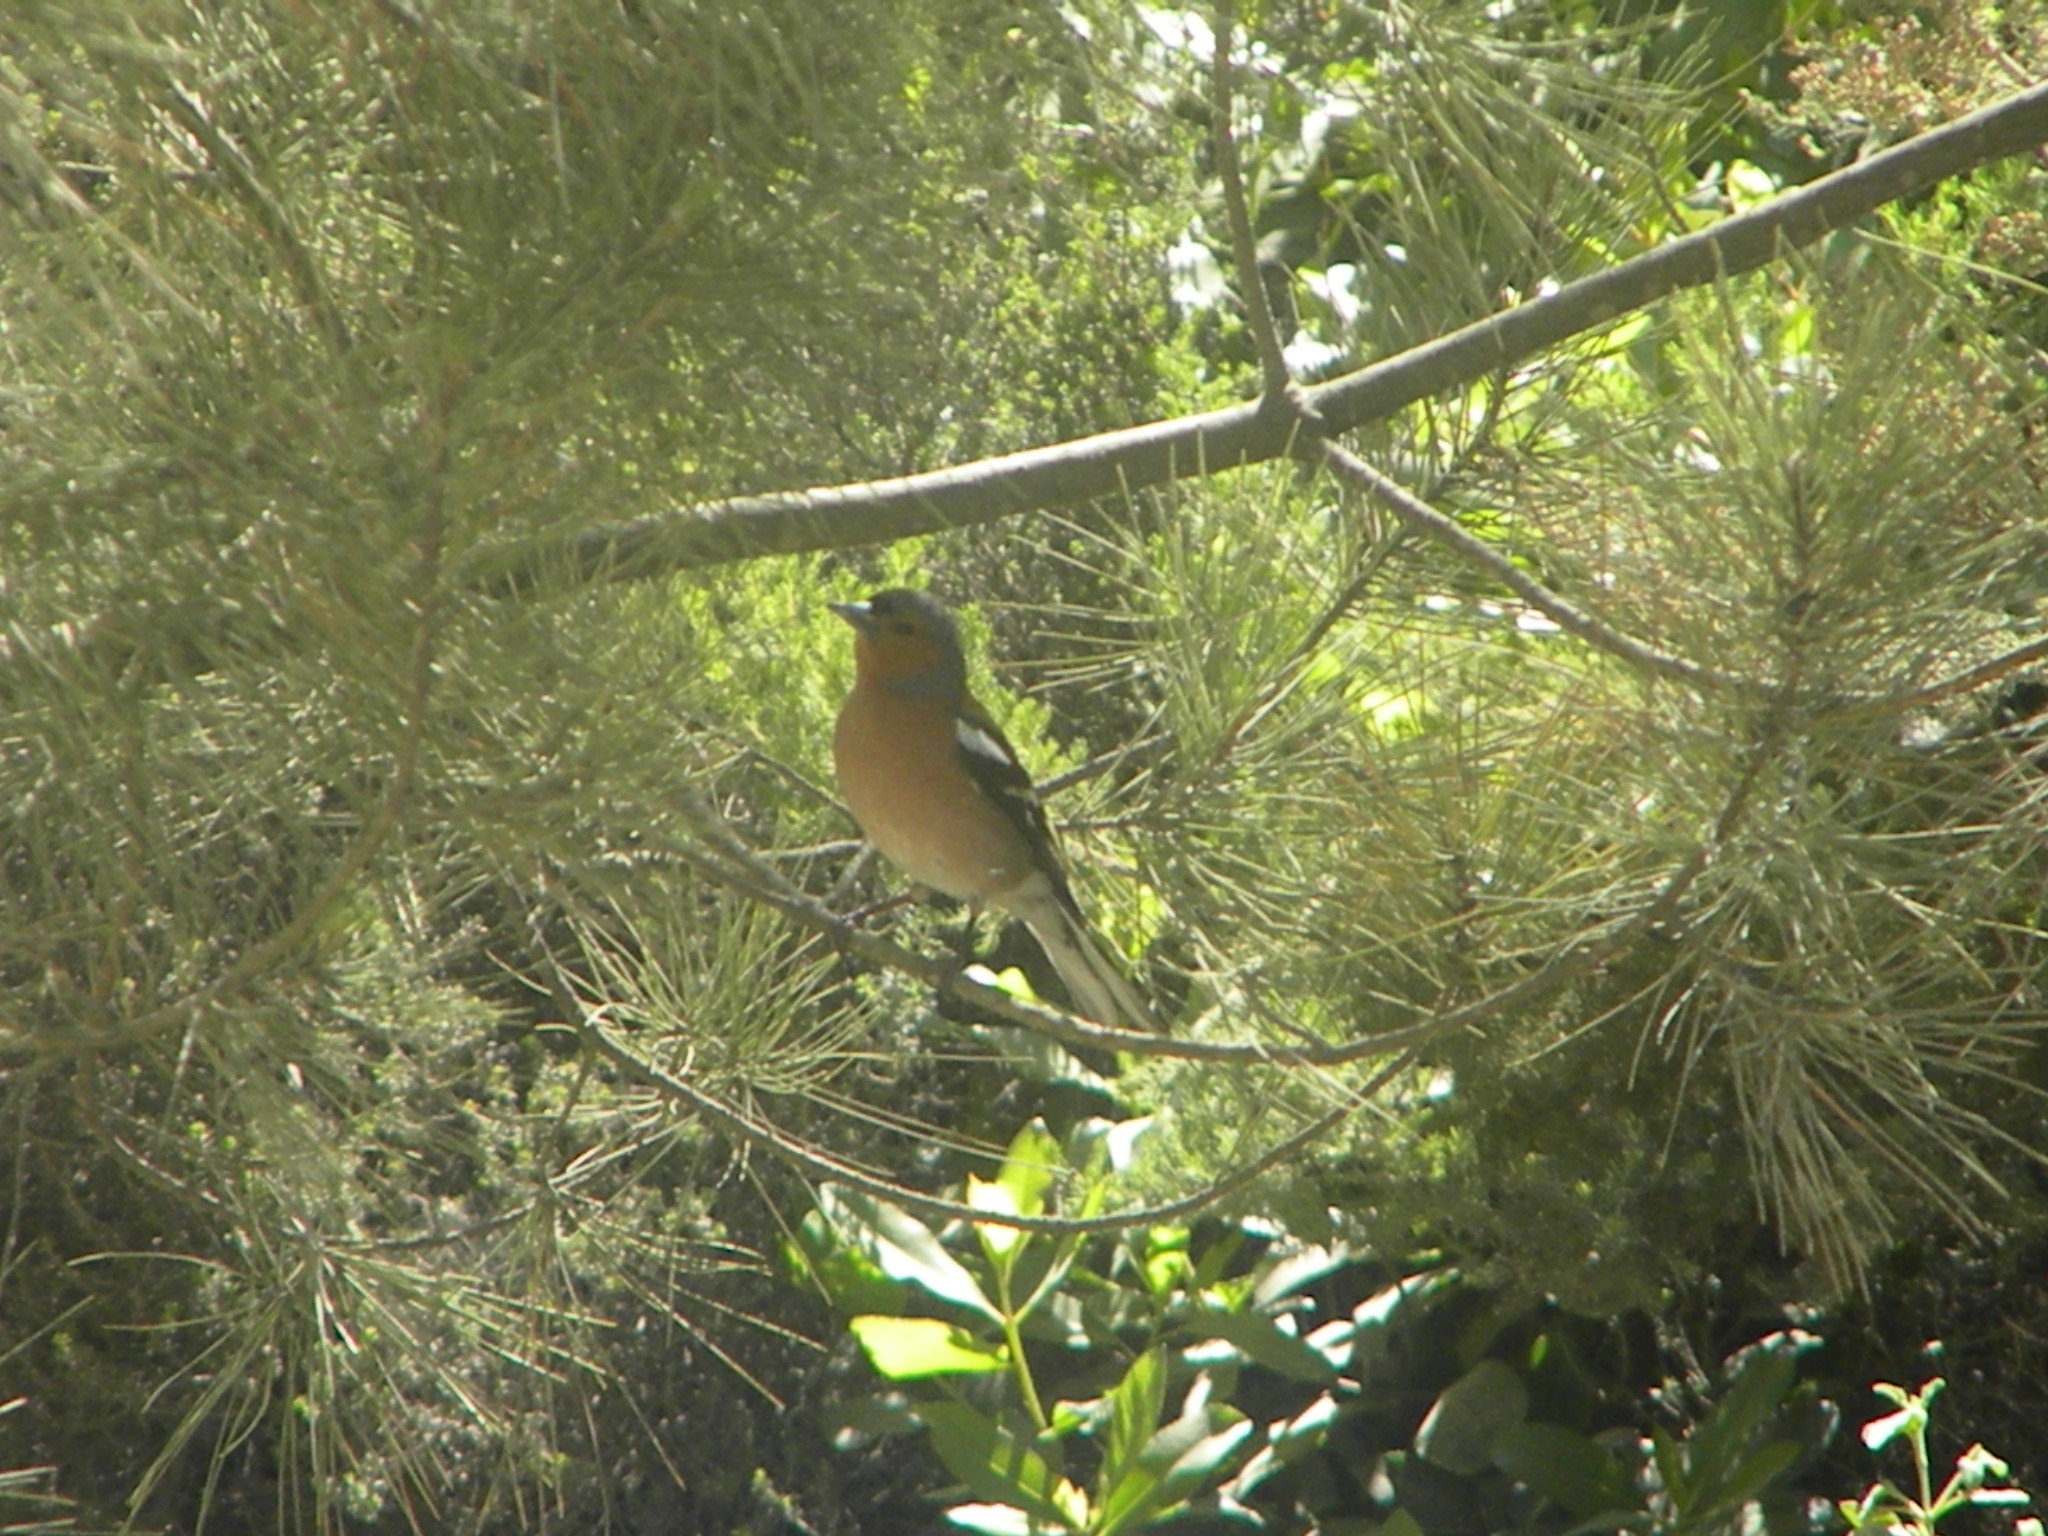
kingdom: Animalia
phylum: Chordata
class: Aves
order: Passeriformes
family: Fringillidae
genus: Fringilla
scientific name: Fringilla coelebs
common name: Common chaffinch
